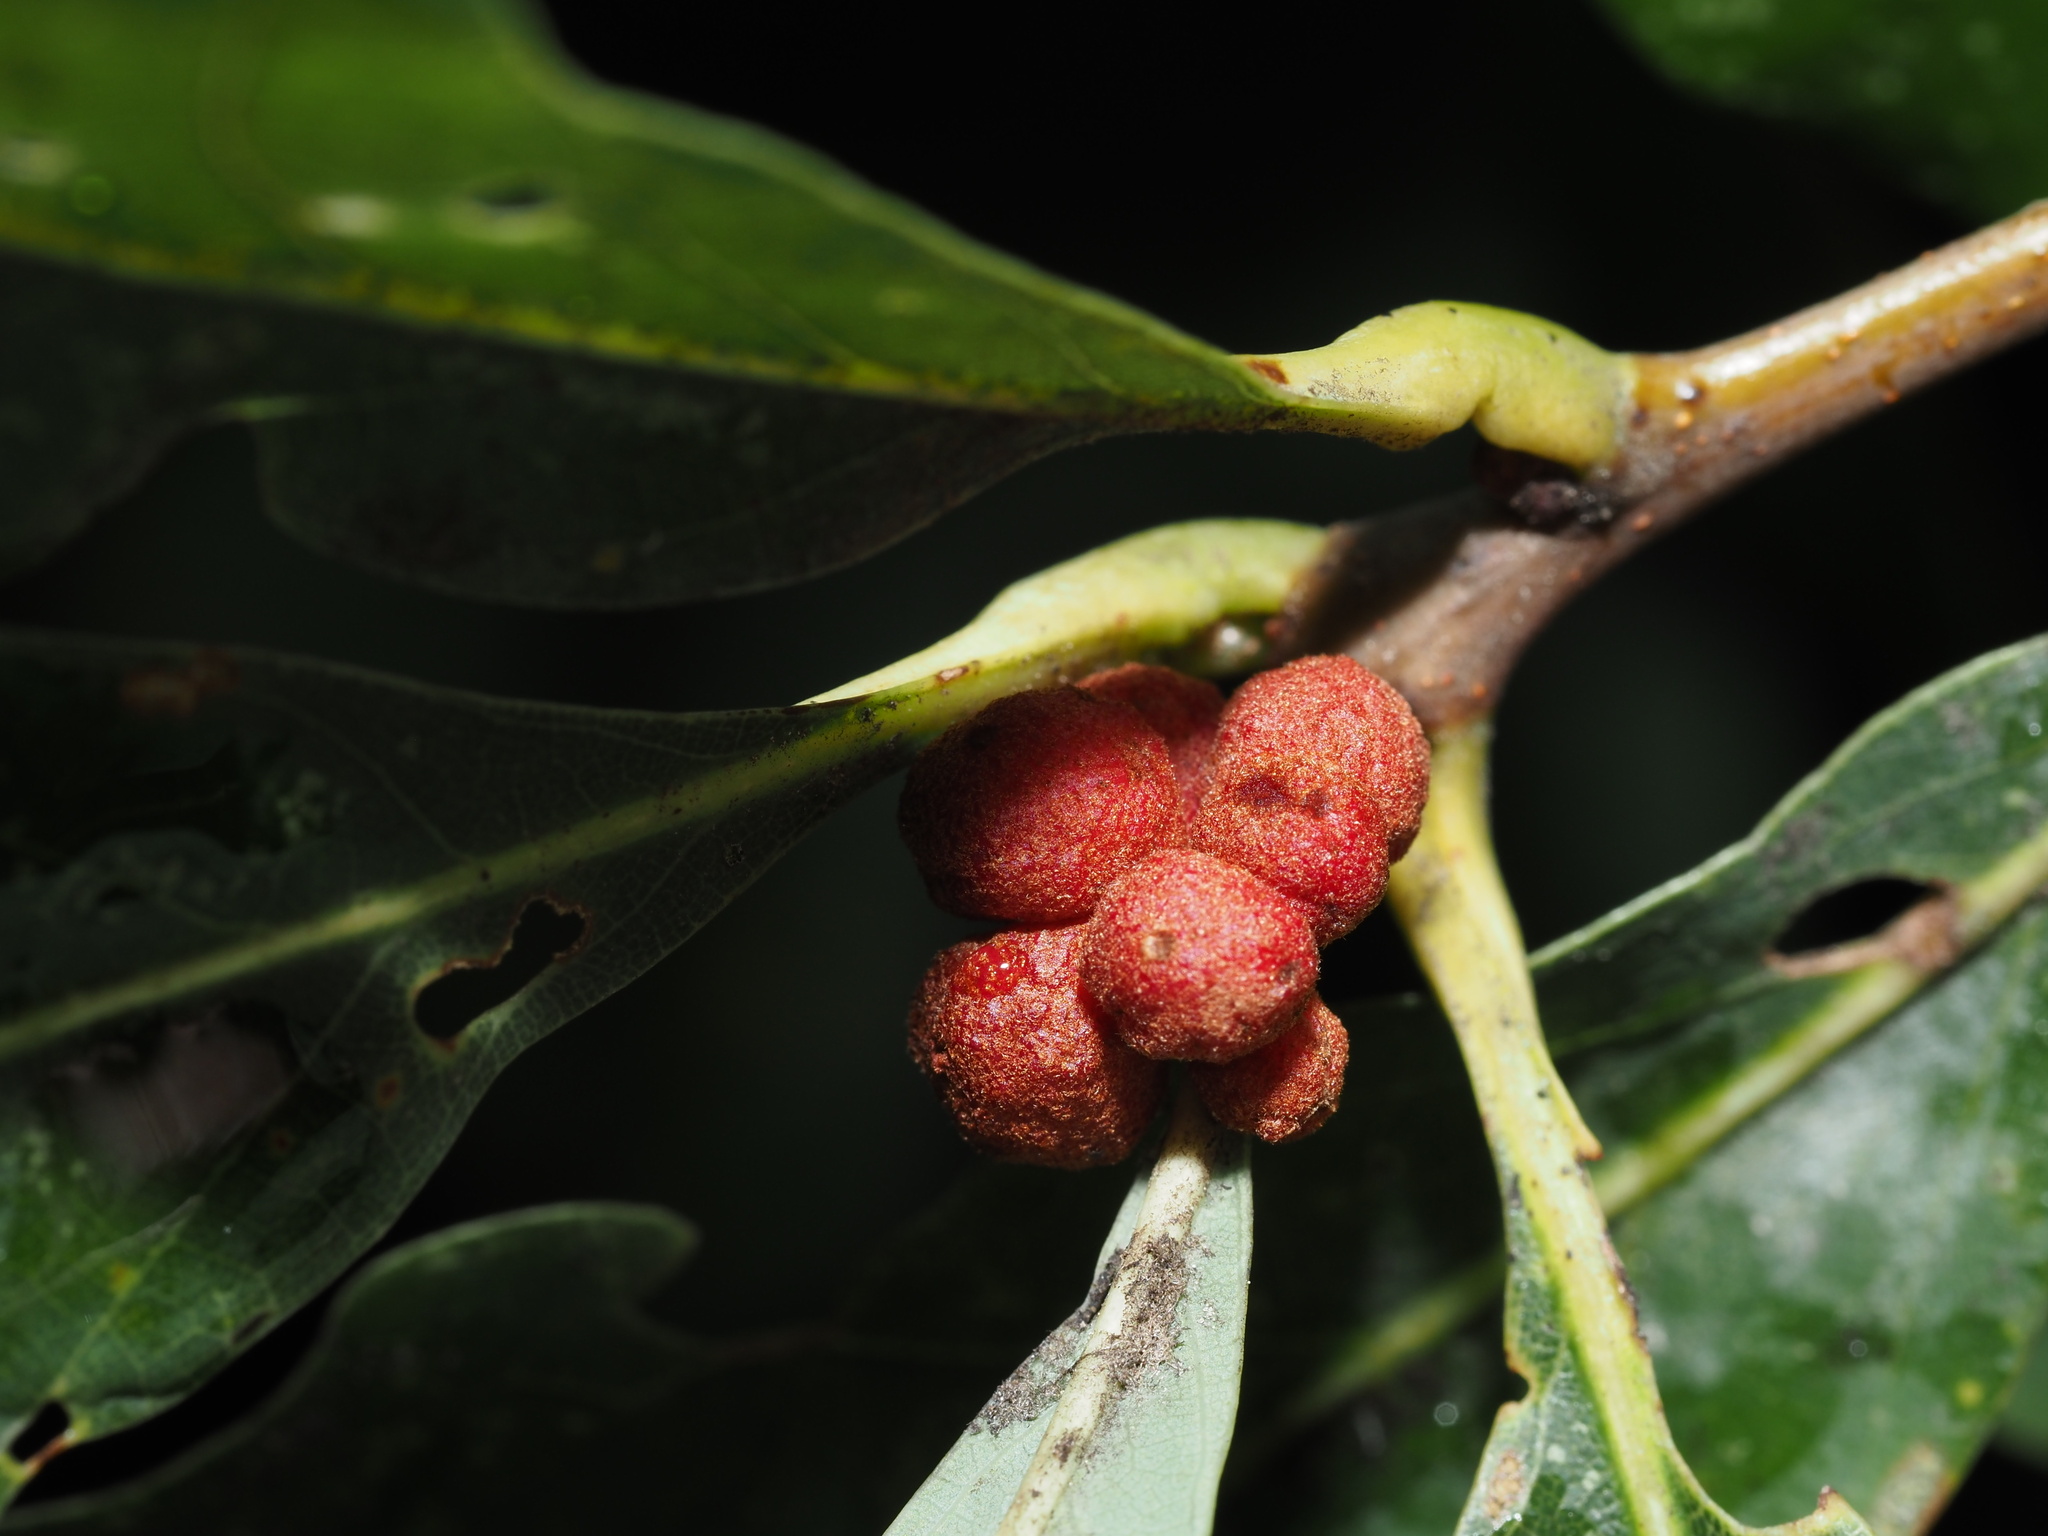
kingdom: Animalia
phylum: Arthropoda
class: Insecta
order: Hymenoptera
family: Cynipidae
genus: Andricus
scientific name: Andricus
